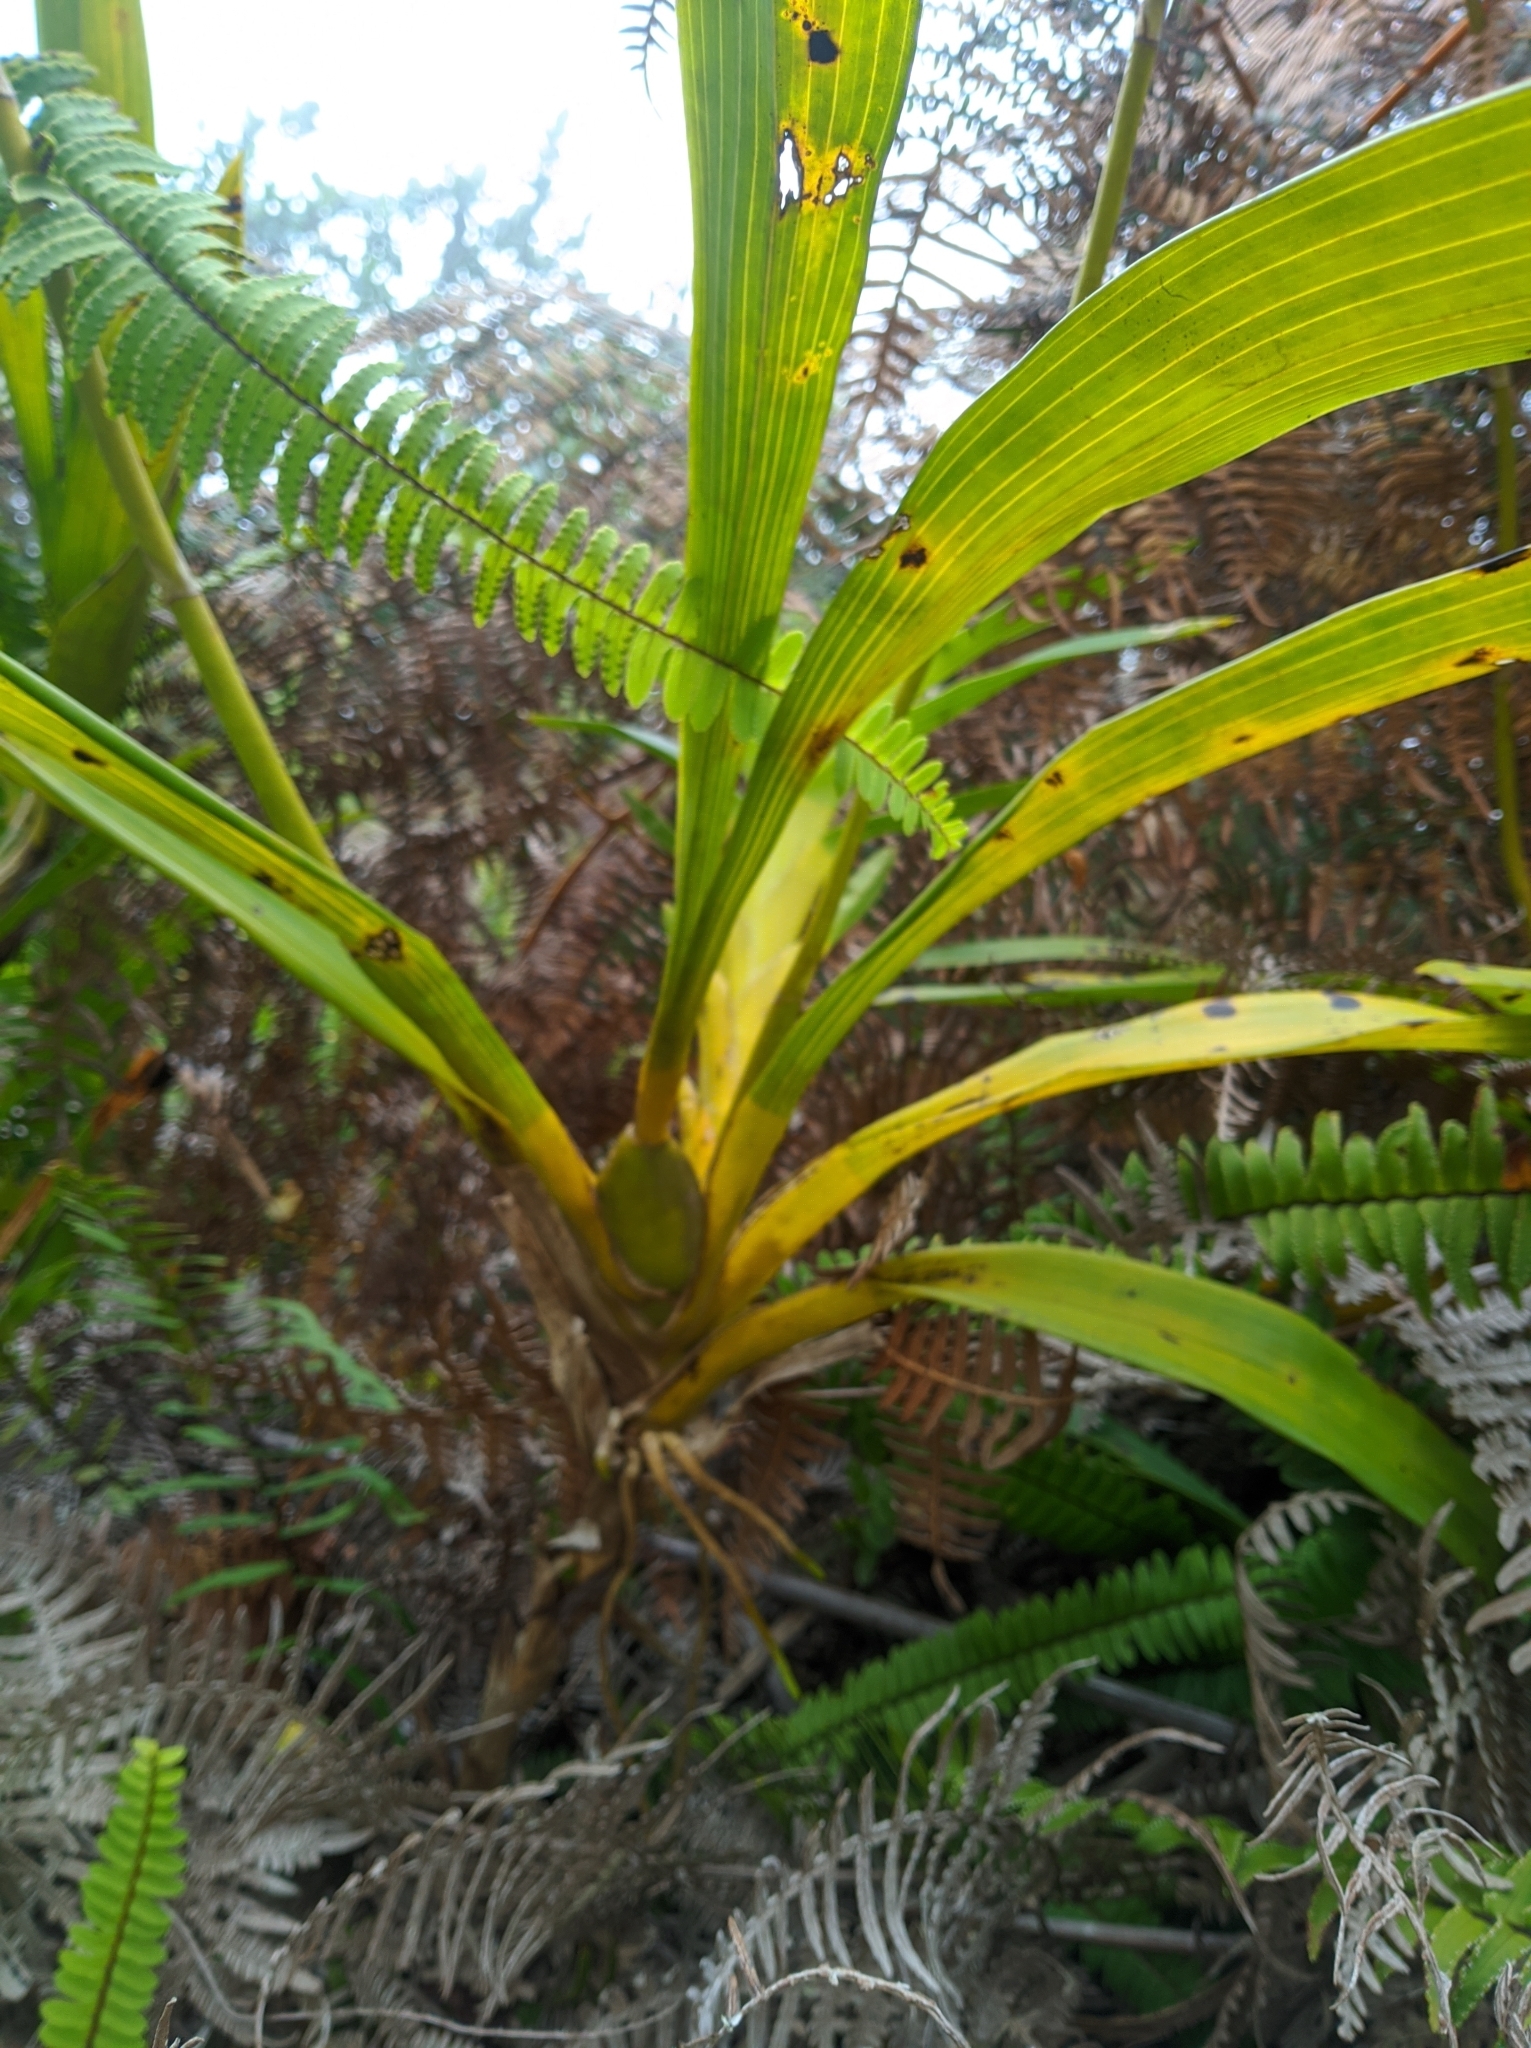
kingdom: Plantae
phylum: Tracheophyta
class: Liliopsida
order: Asparagales
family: Orchidaceae
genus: Cyrtochilum
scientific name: Cyrtochilum divaricatum
